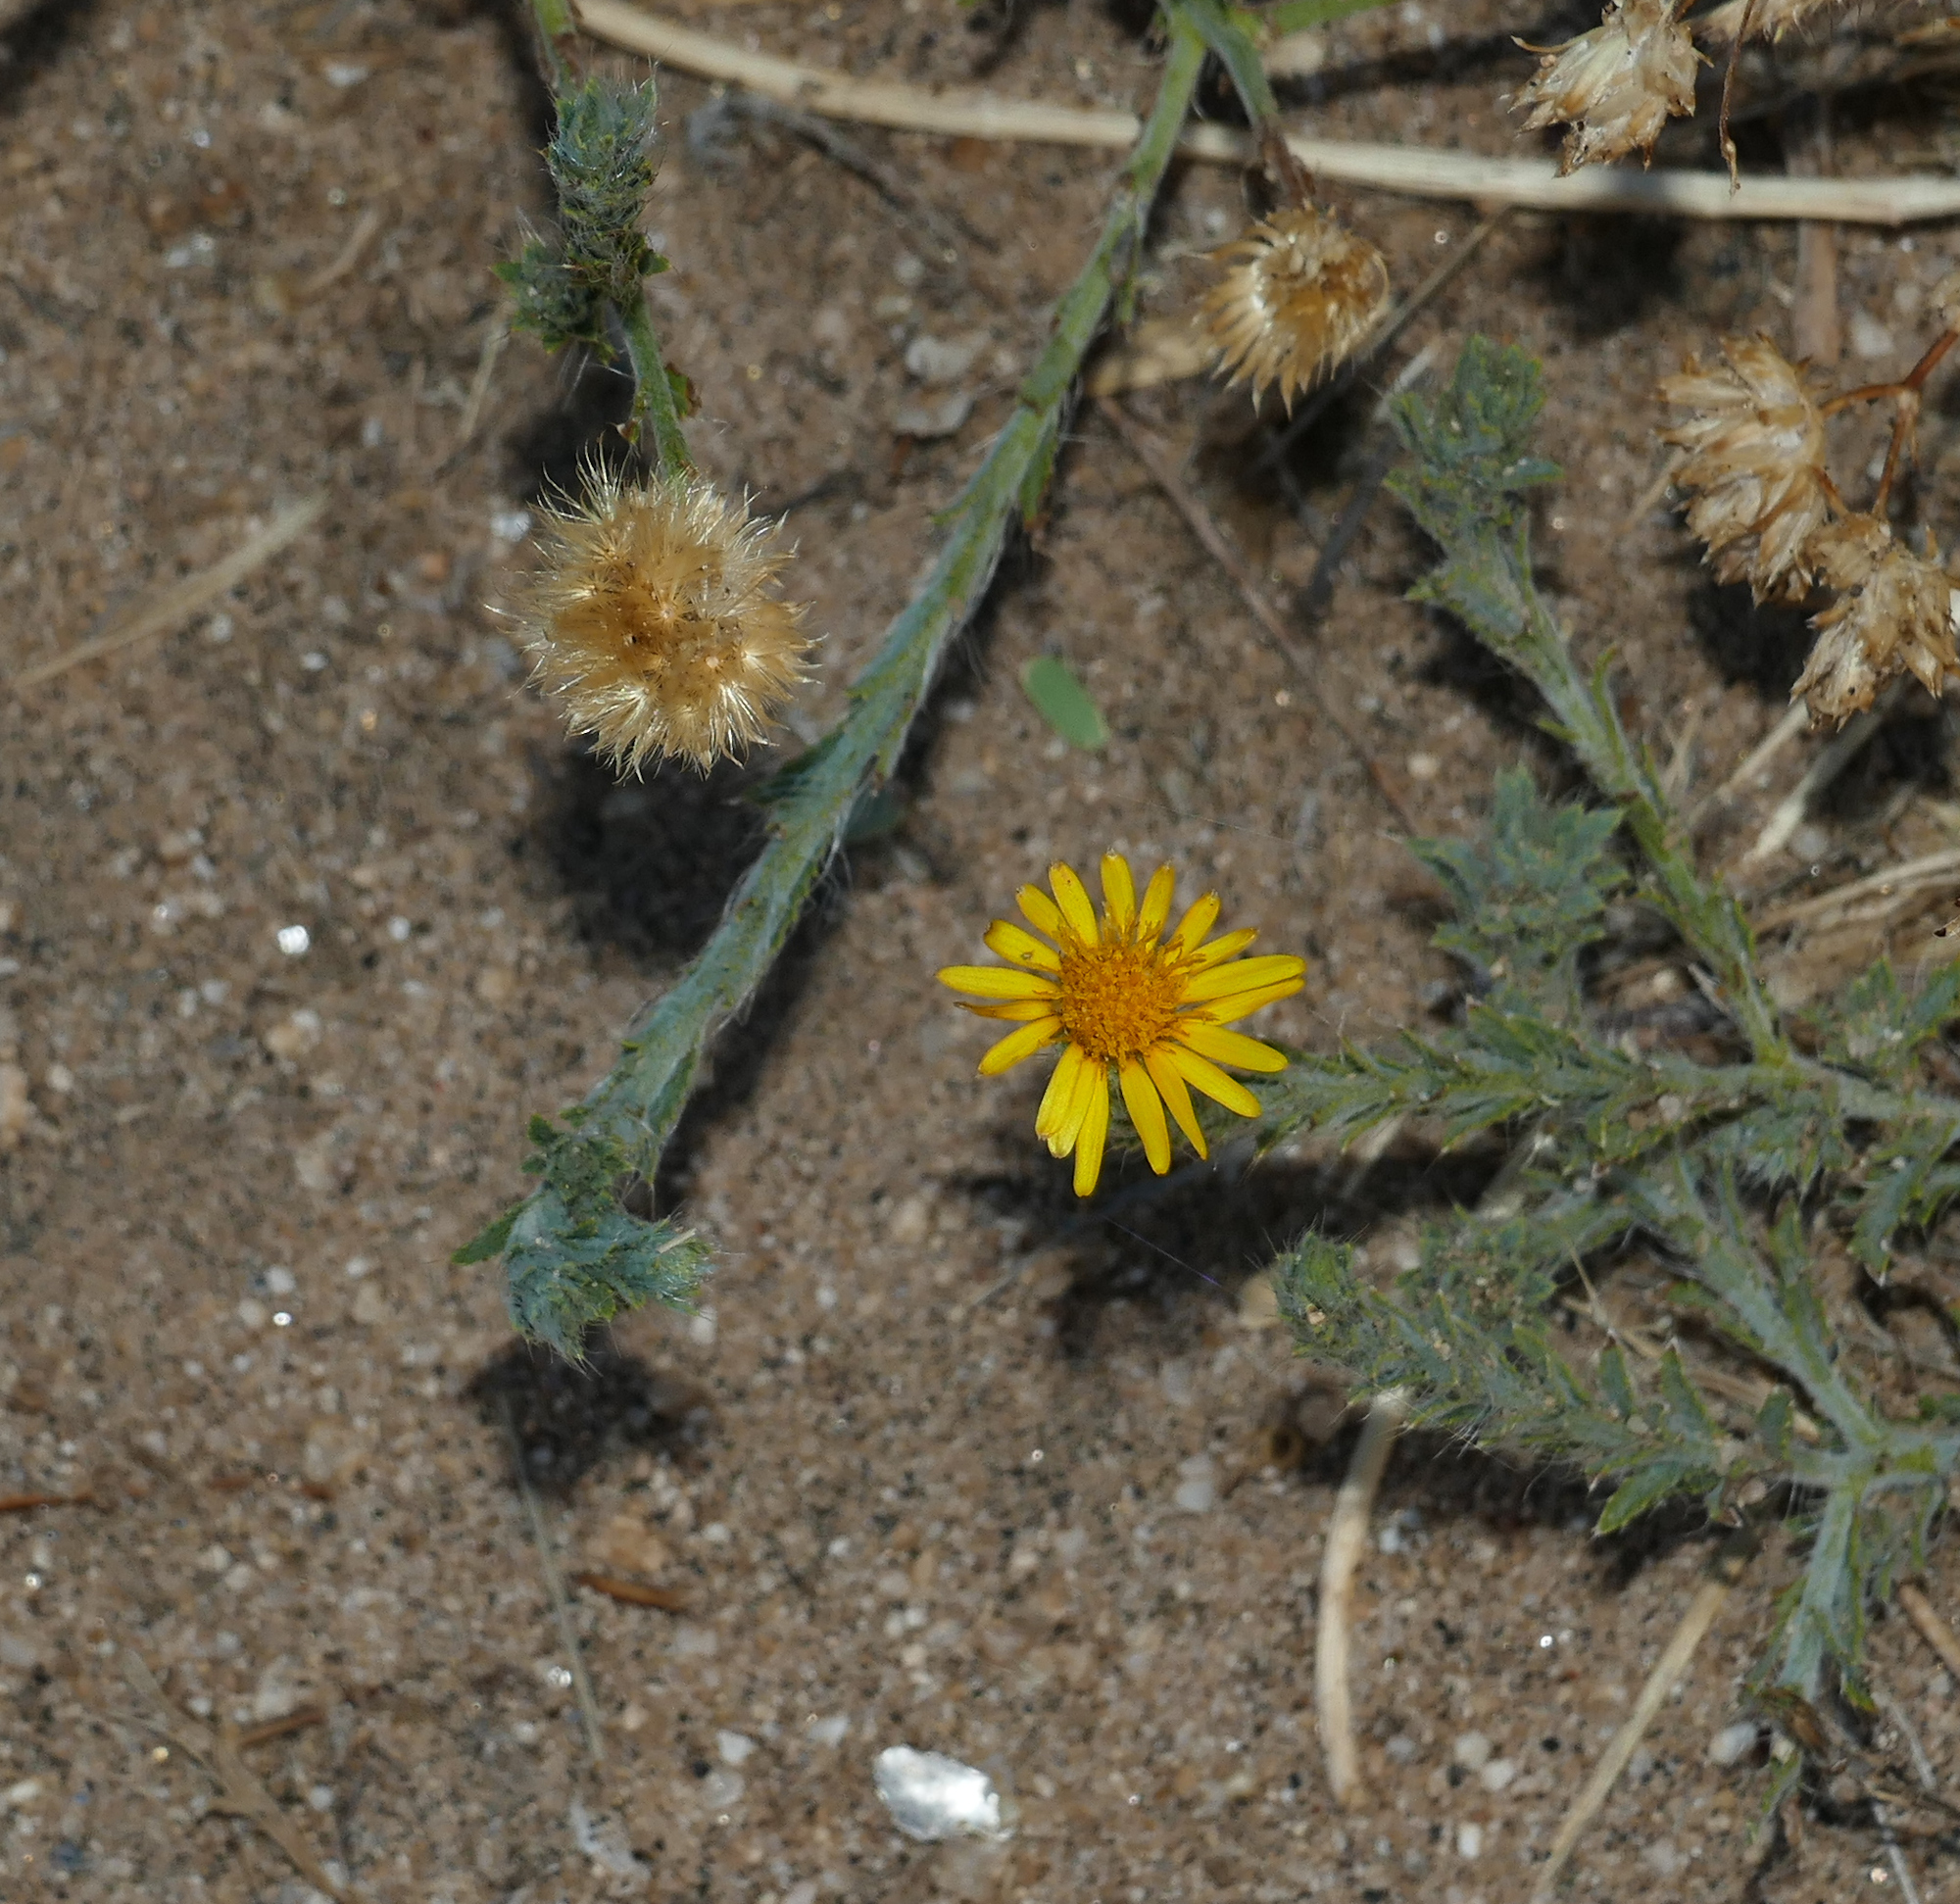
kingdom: Plantae
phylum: Tracheophyta
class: Magnoliopsida
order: Asterales
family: Asteraceae
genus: Xanthisma
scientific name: Xanthisma gracile
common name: Slender goldenweed
